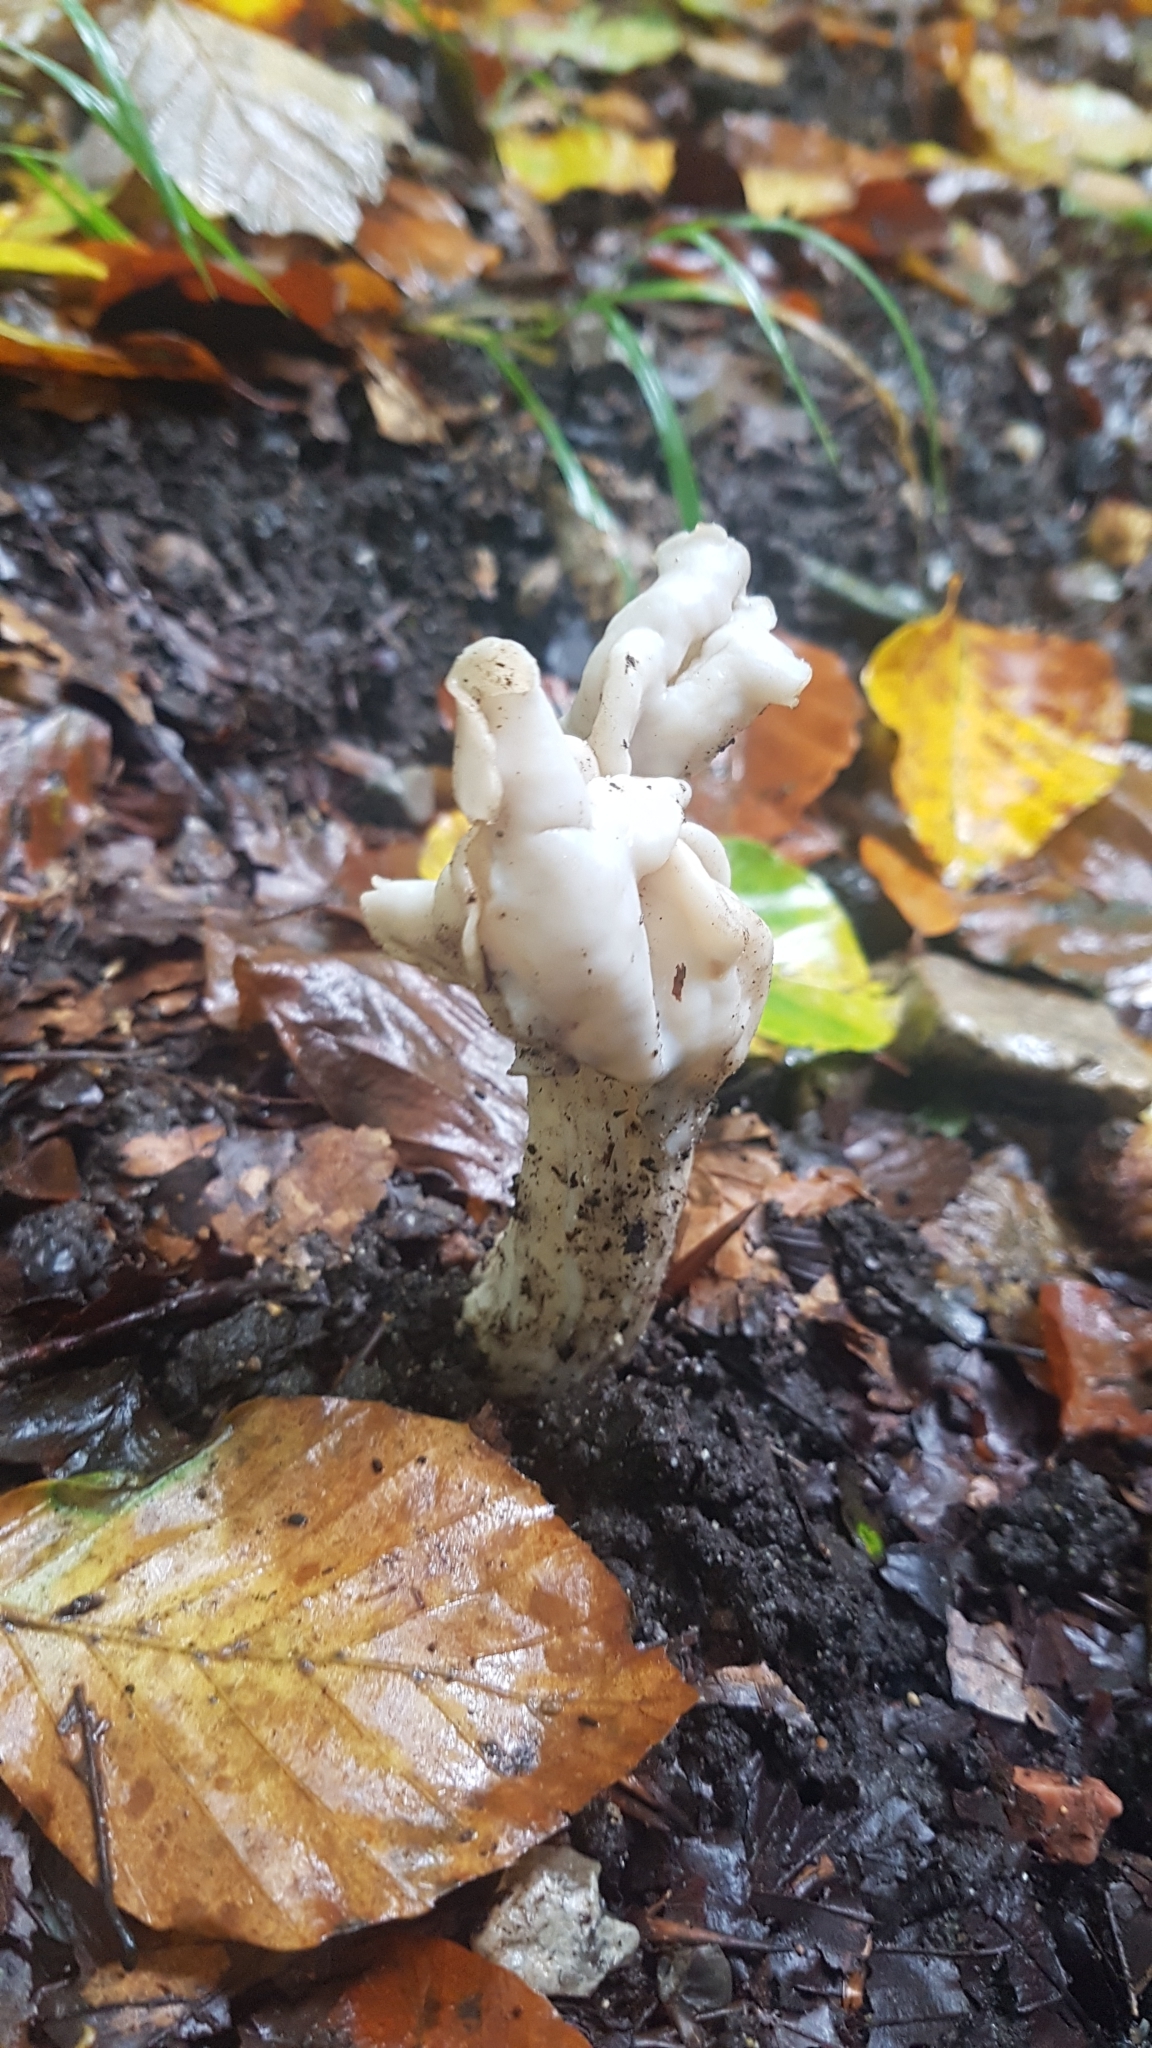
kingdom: Fungi
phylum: Ascomycota
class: Pezizomycetes
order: Pezizales
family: Helvellaceae
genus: Helvella
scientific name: Helvella crispa
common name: White saddle
